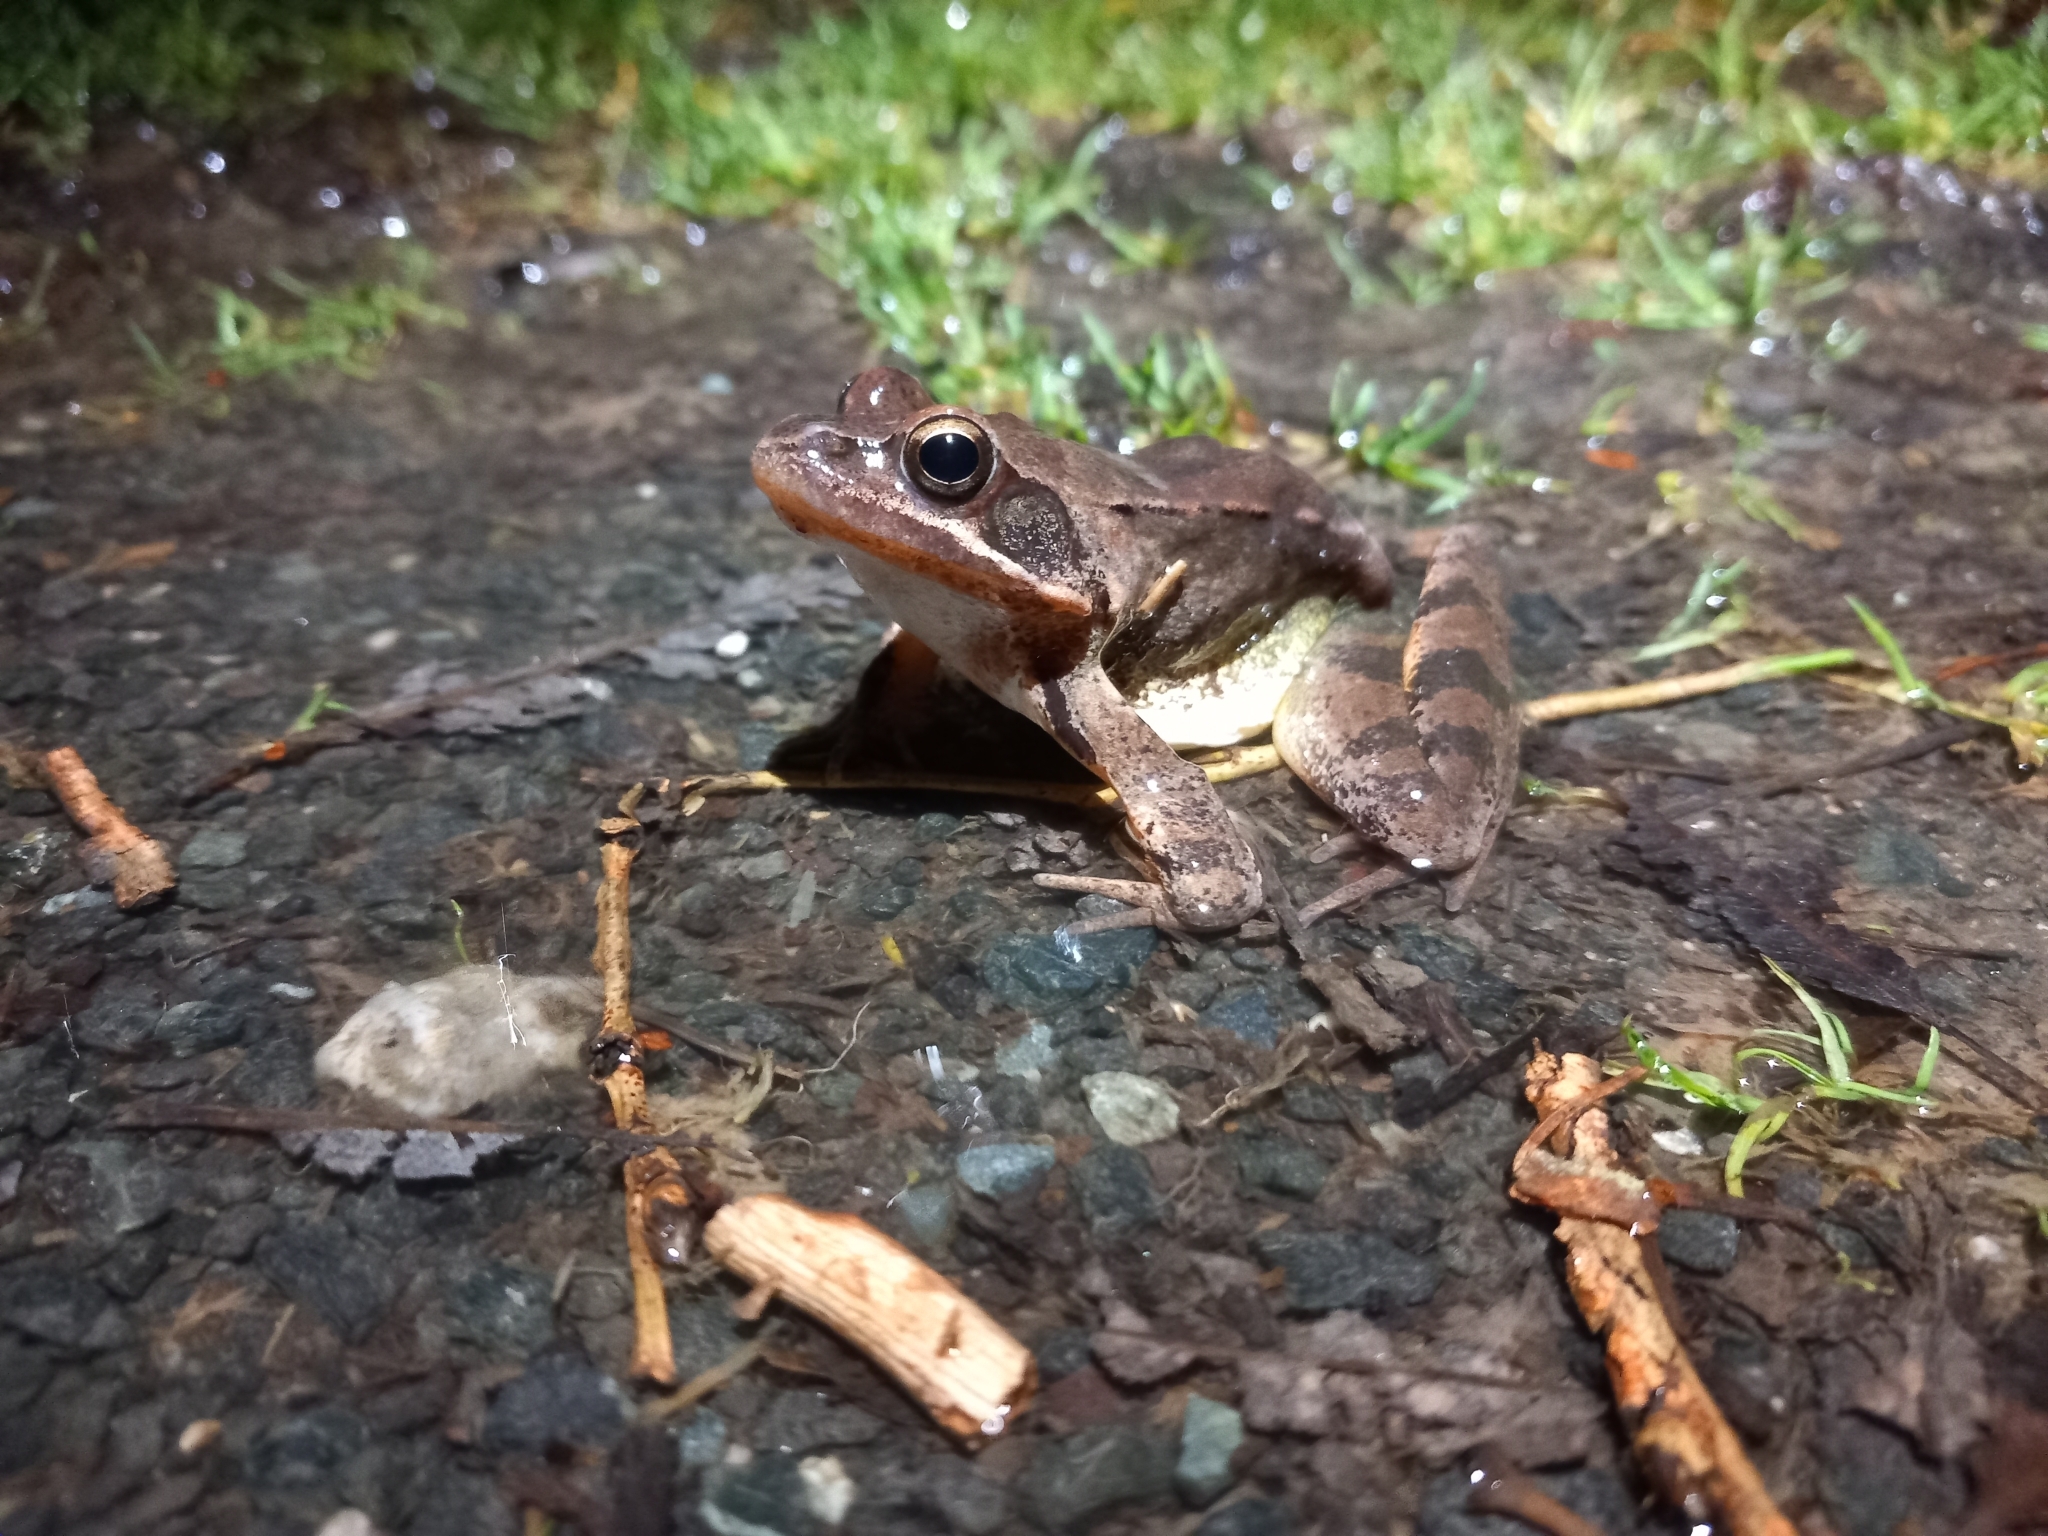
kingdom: Animalia
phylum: Chordata
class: Amphibia
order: Anura
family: Ranidae
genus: Rana
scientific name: Rana dalmatina
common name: Agile frog
